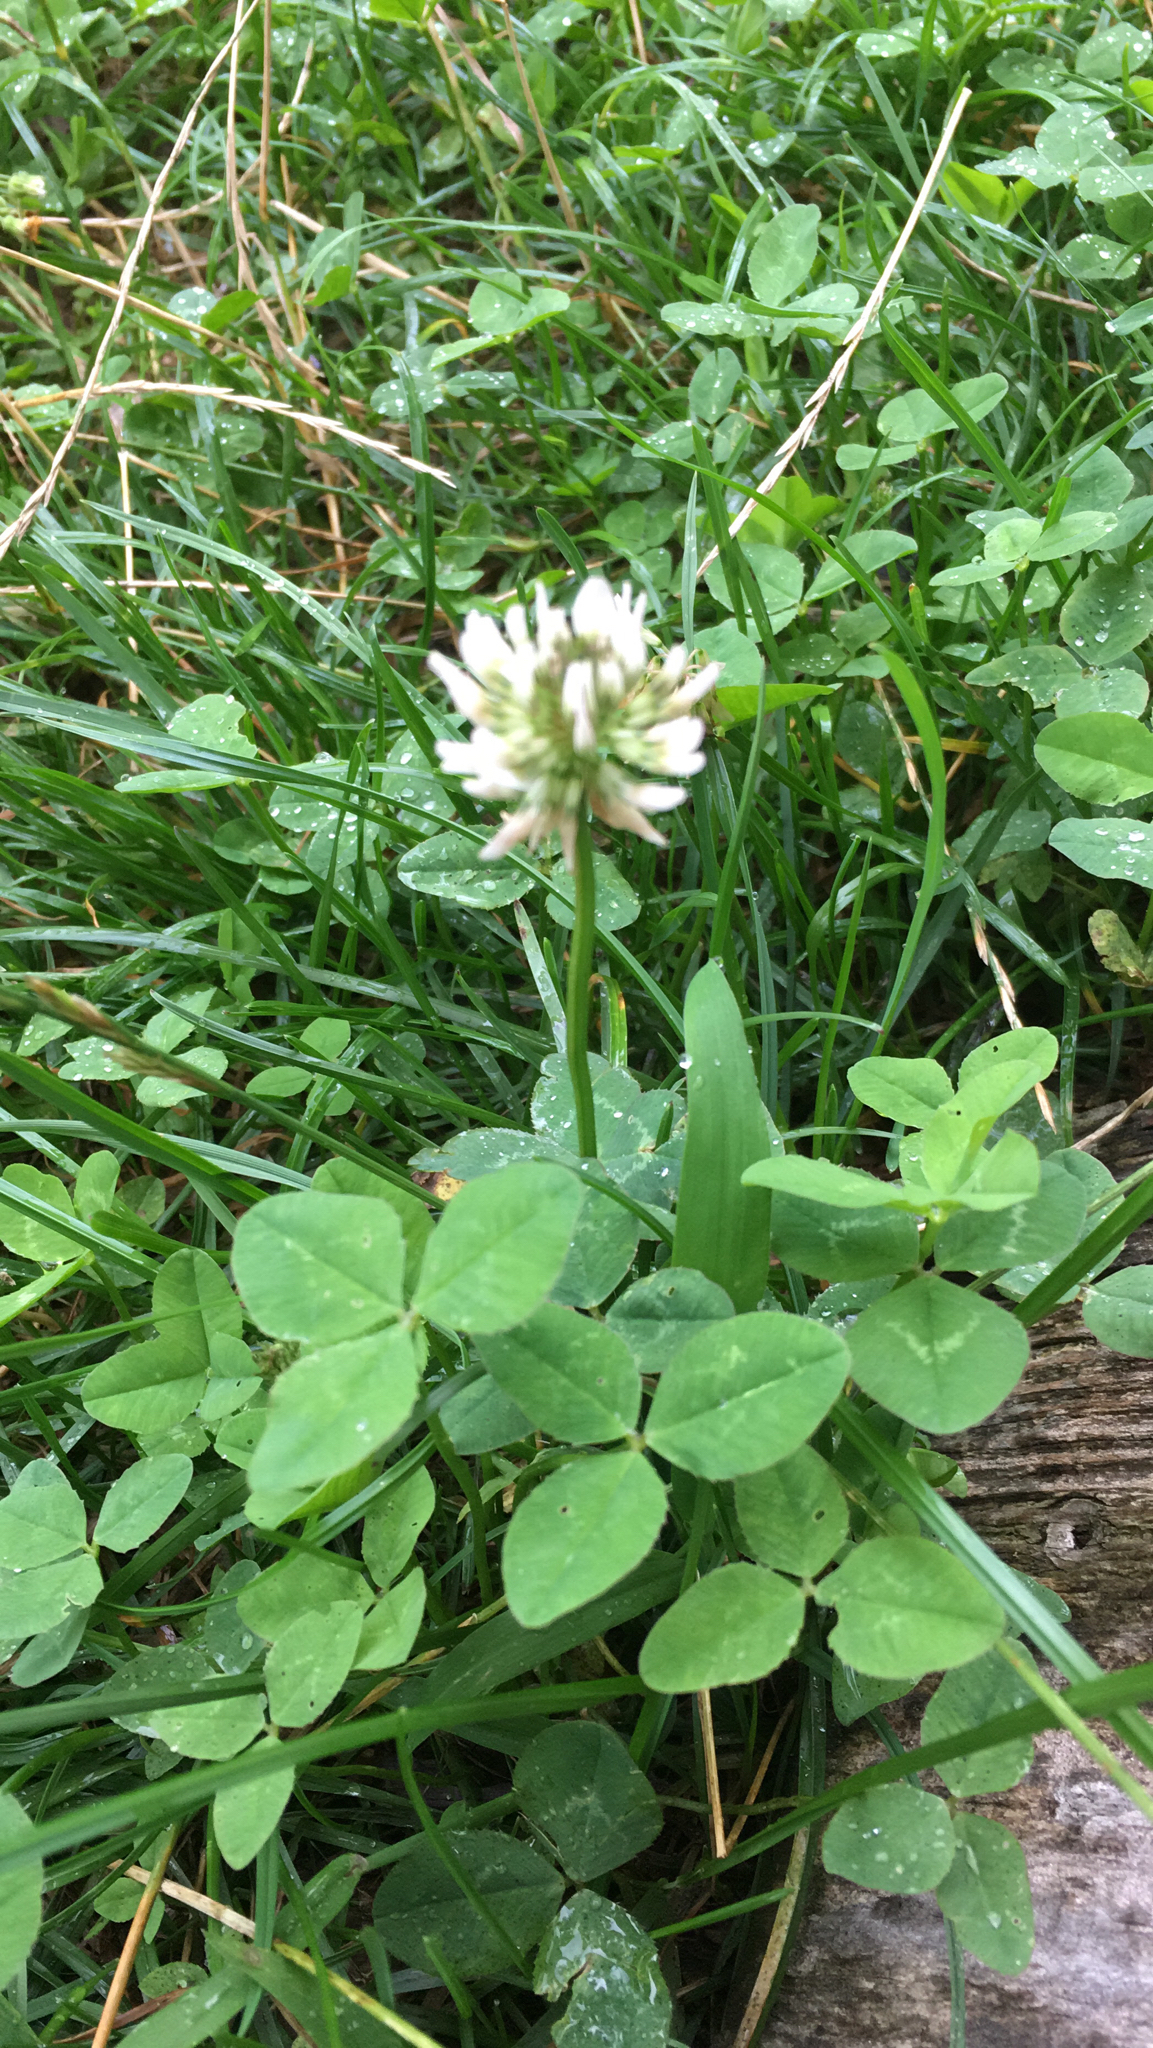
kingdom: Plantae
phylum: Tracheophyta
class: Magnoliopsida
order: Fabales
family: Fabaceae
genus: Trifolium
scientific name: Trifolium repens
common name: White clover
